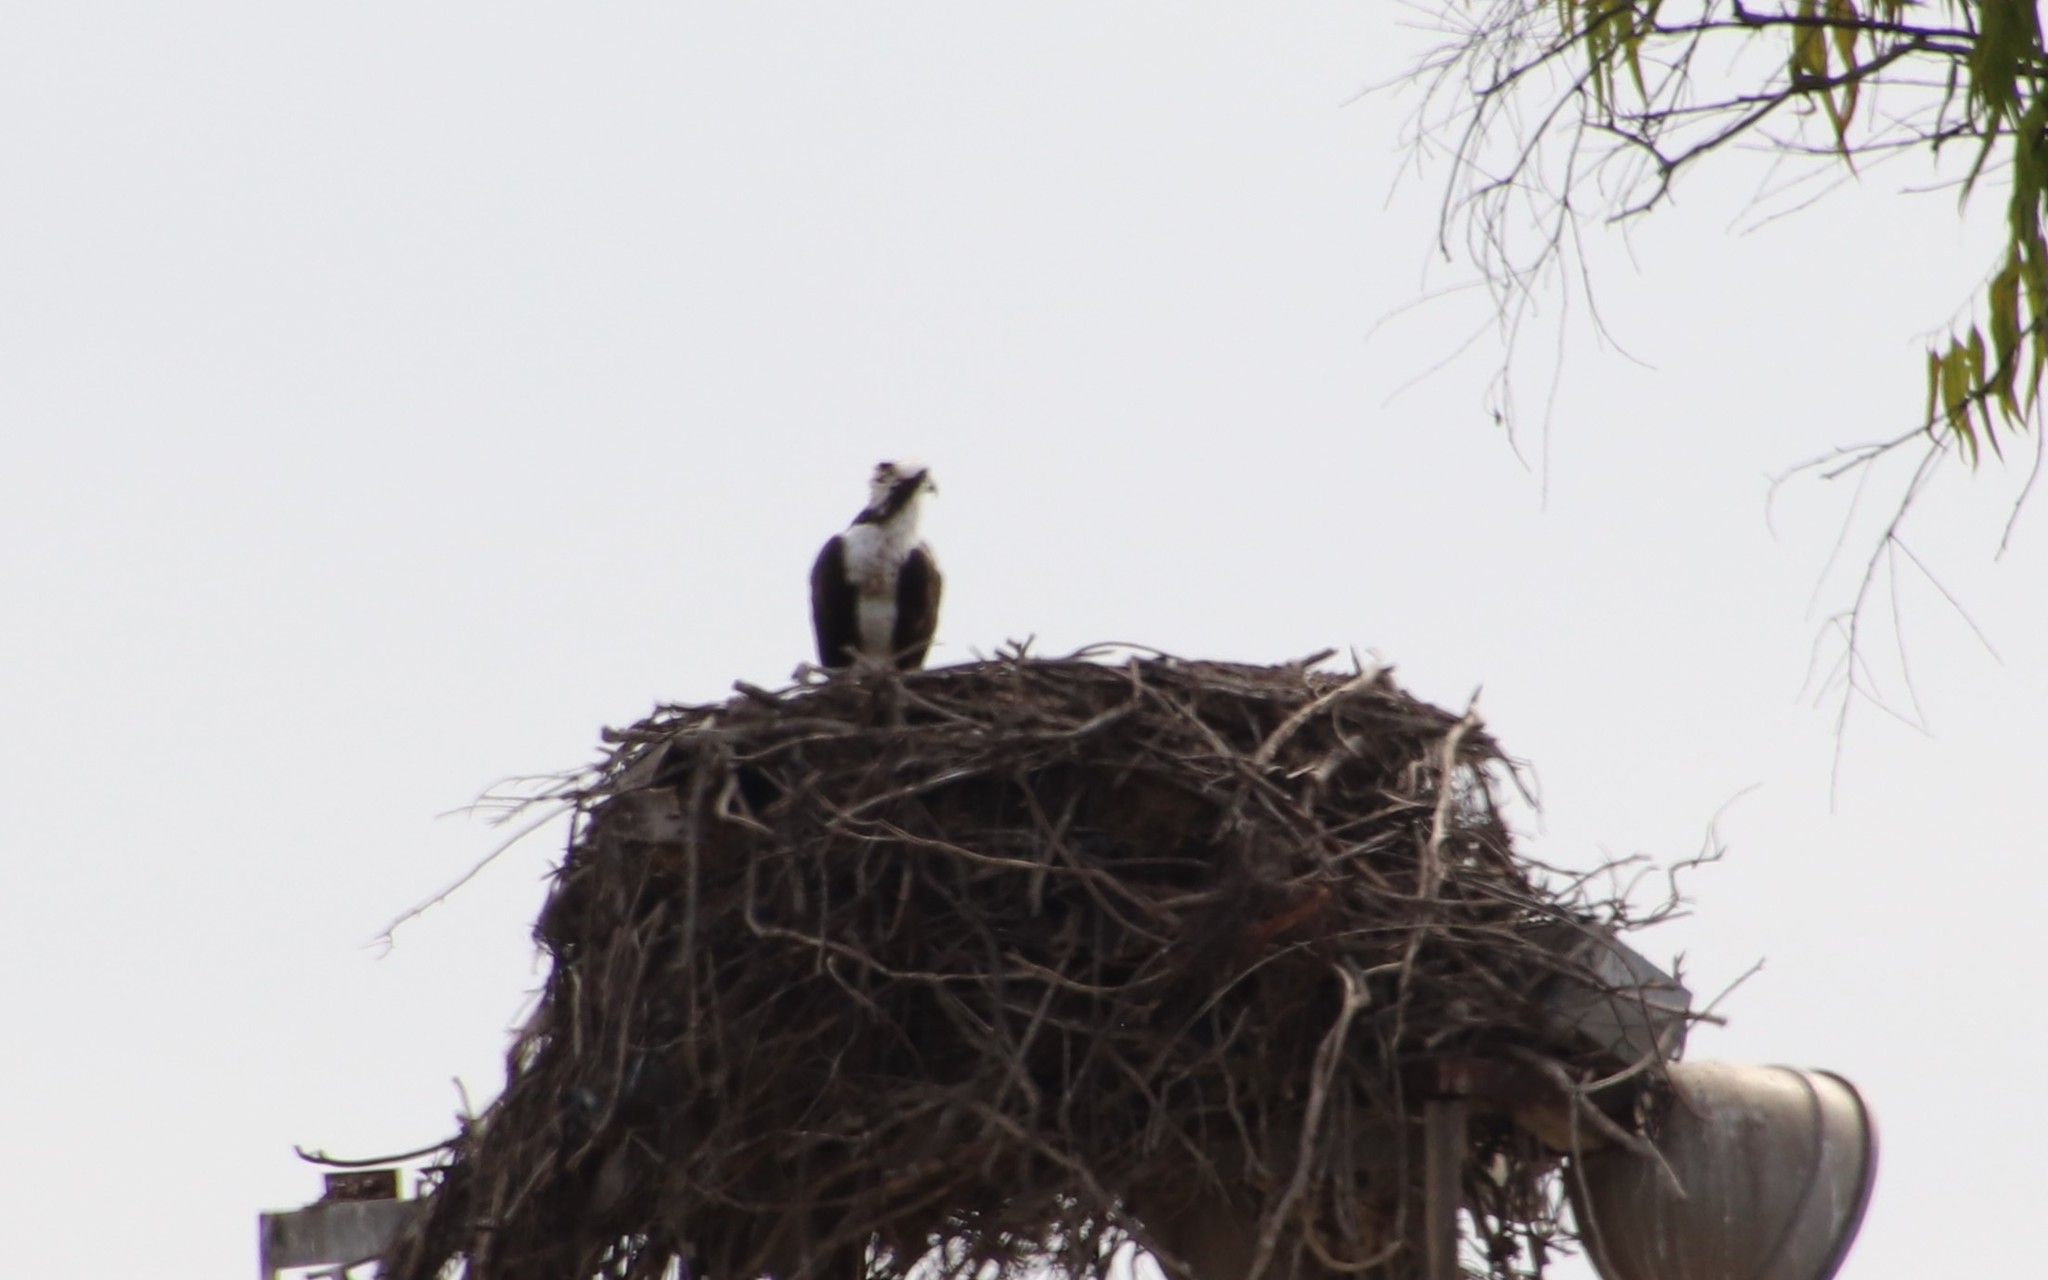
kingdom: Animalia
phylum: Chordata
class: Aves
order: Accipitriformes
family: Pandionidae
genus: Pandion
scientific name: Pandion haliaetus
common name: Osprey
